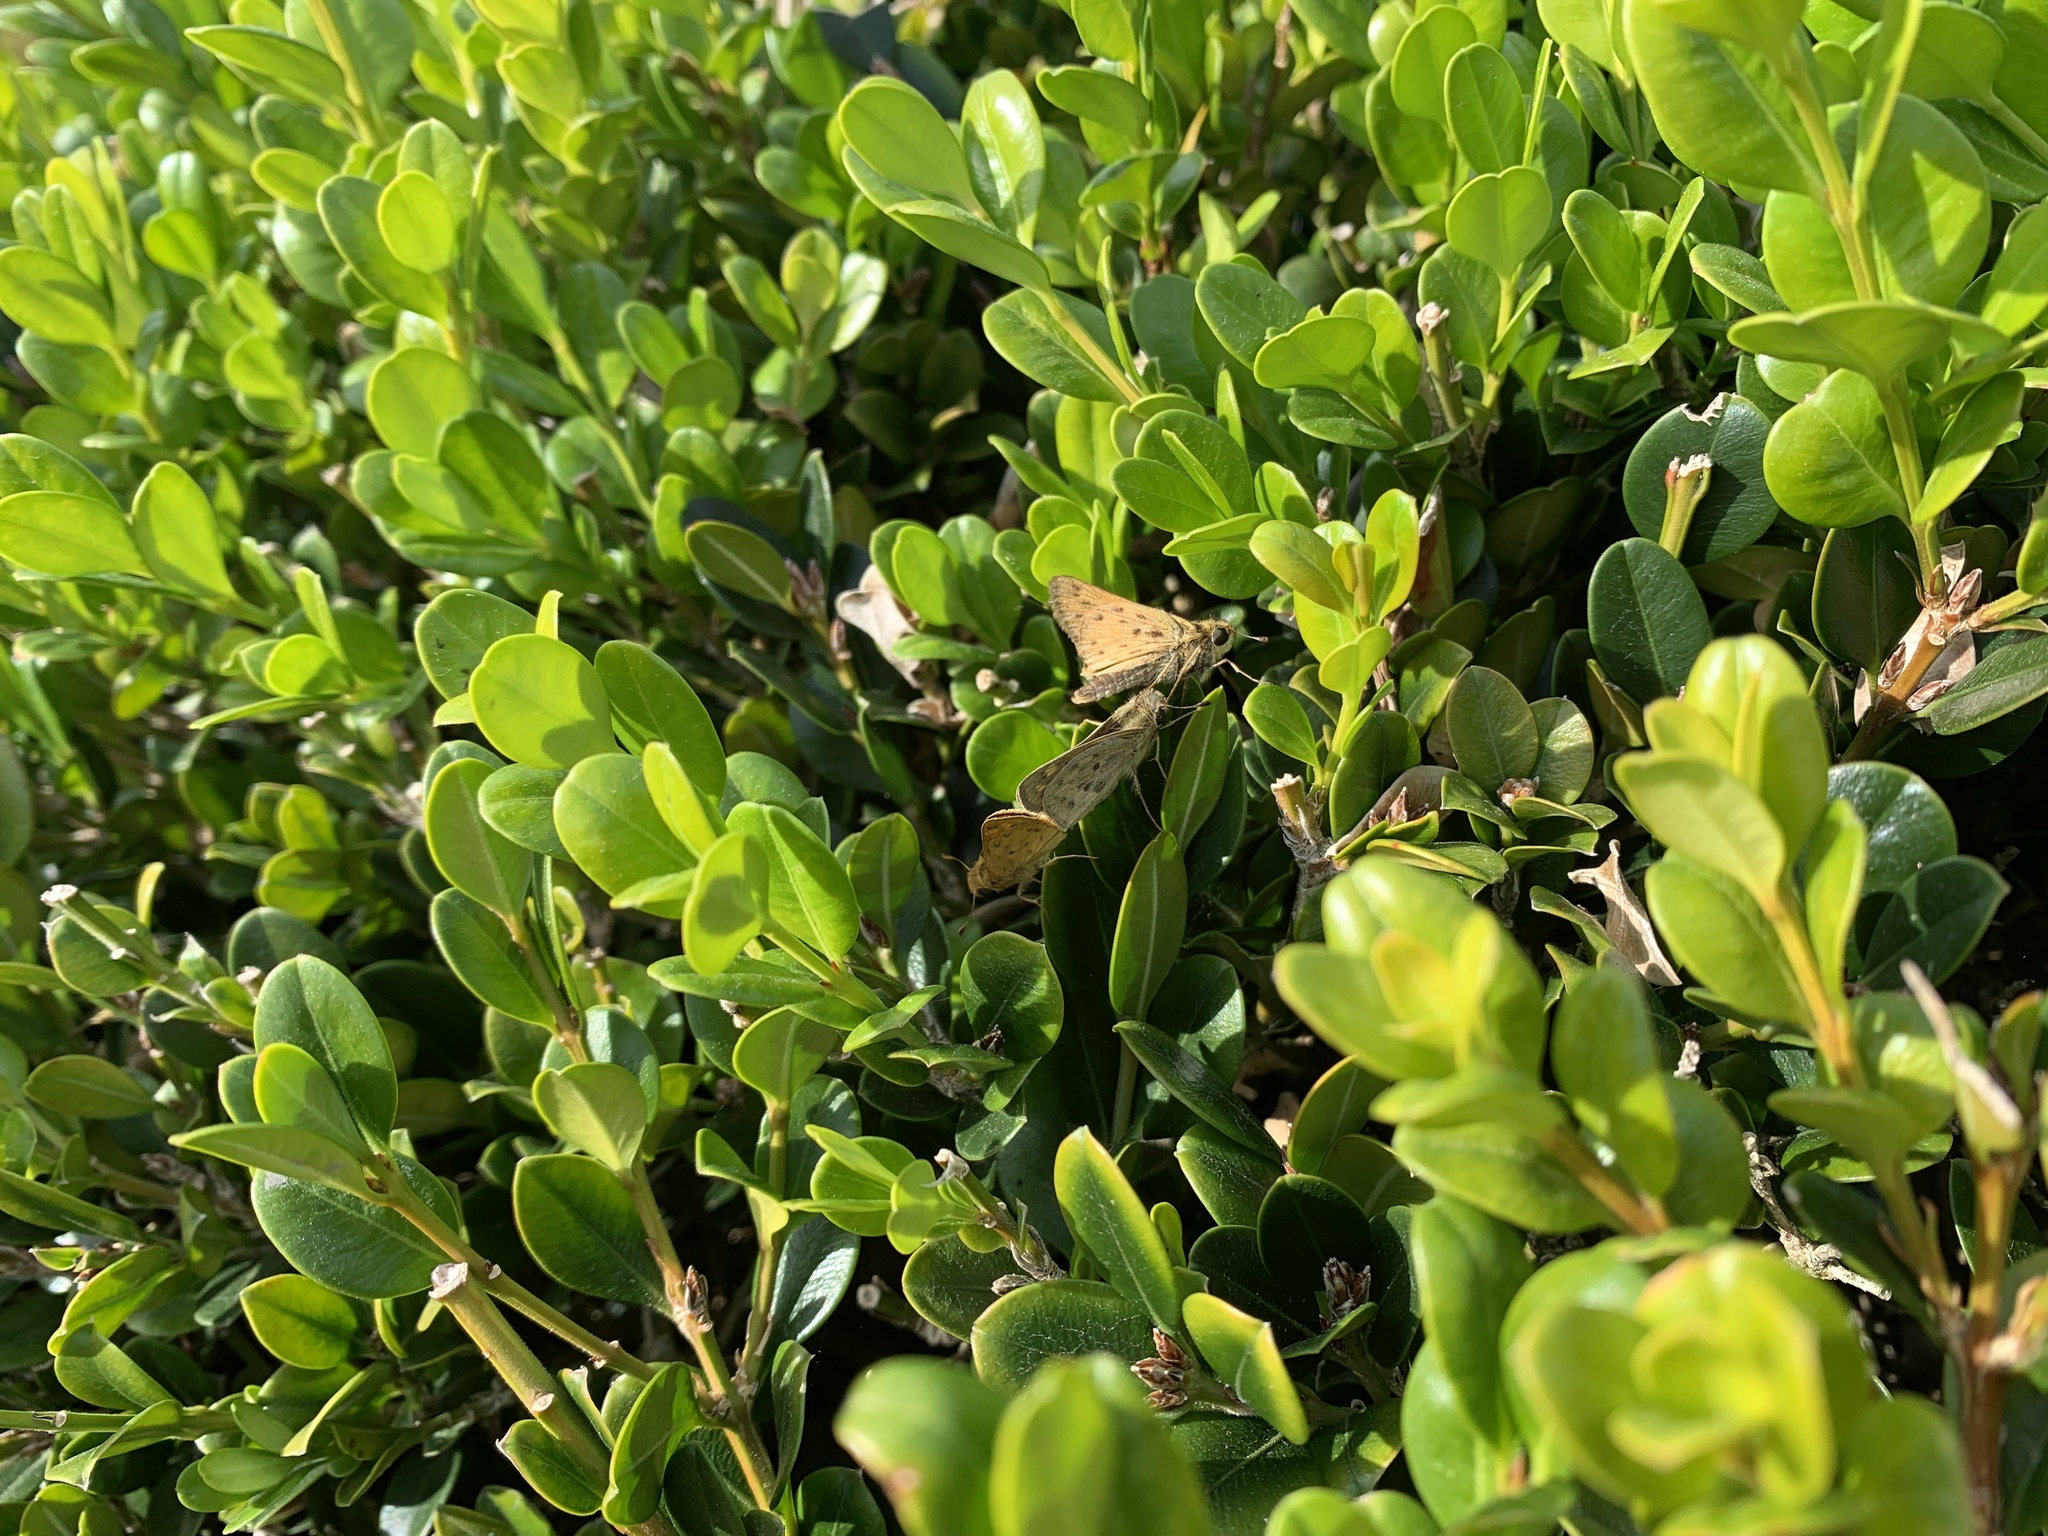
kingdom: Animalia
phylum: Arthropoda
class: Insecta
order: Lepidoptera
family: Hesperiidae
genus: Hylephila
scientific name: Hylephila phyleus
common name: Fiery skipper
